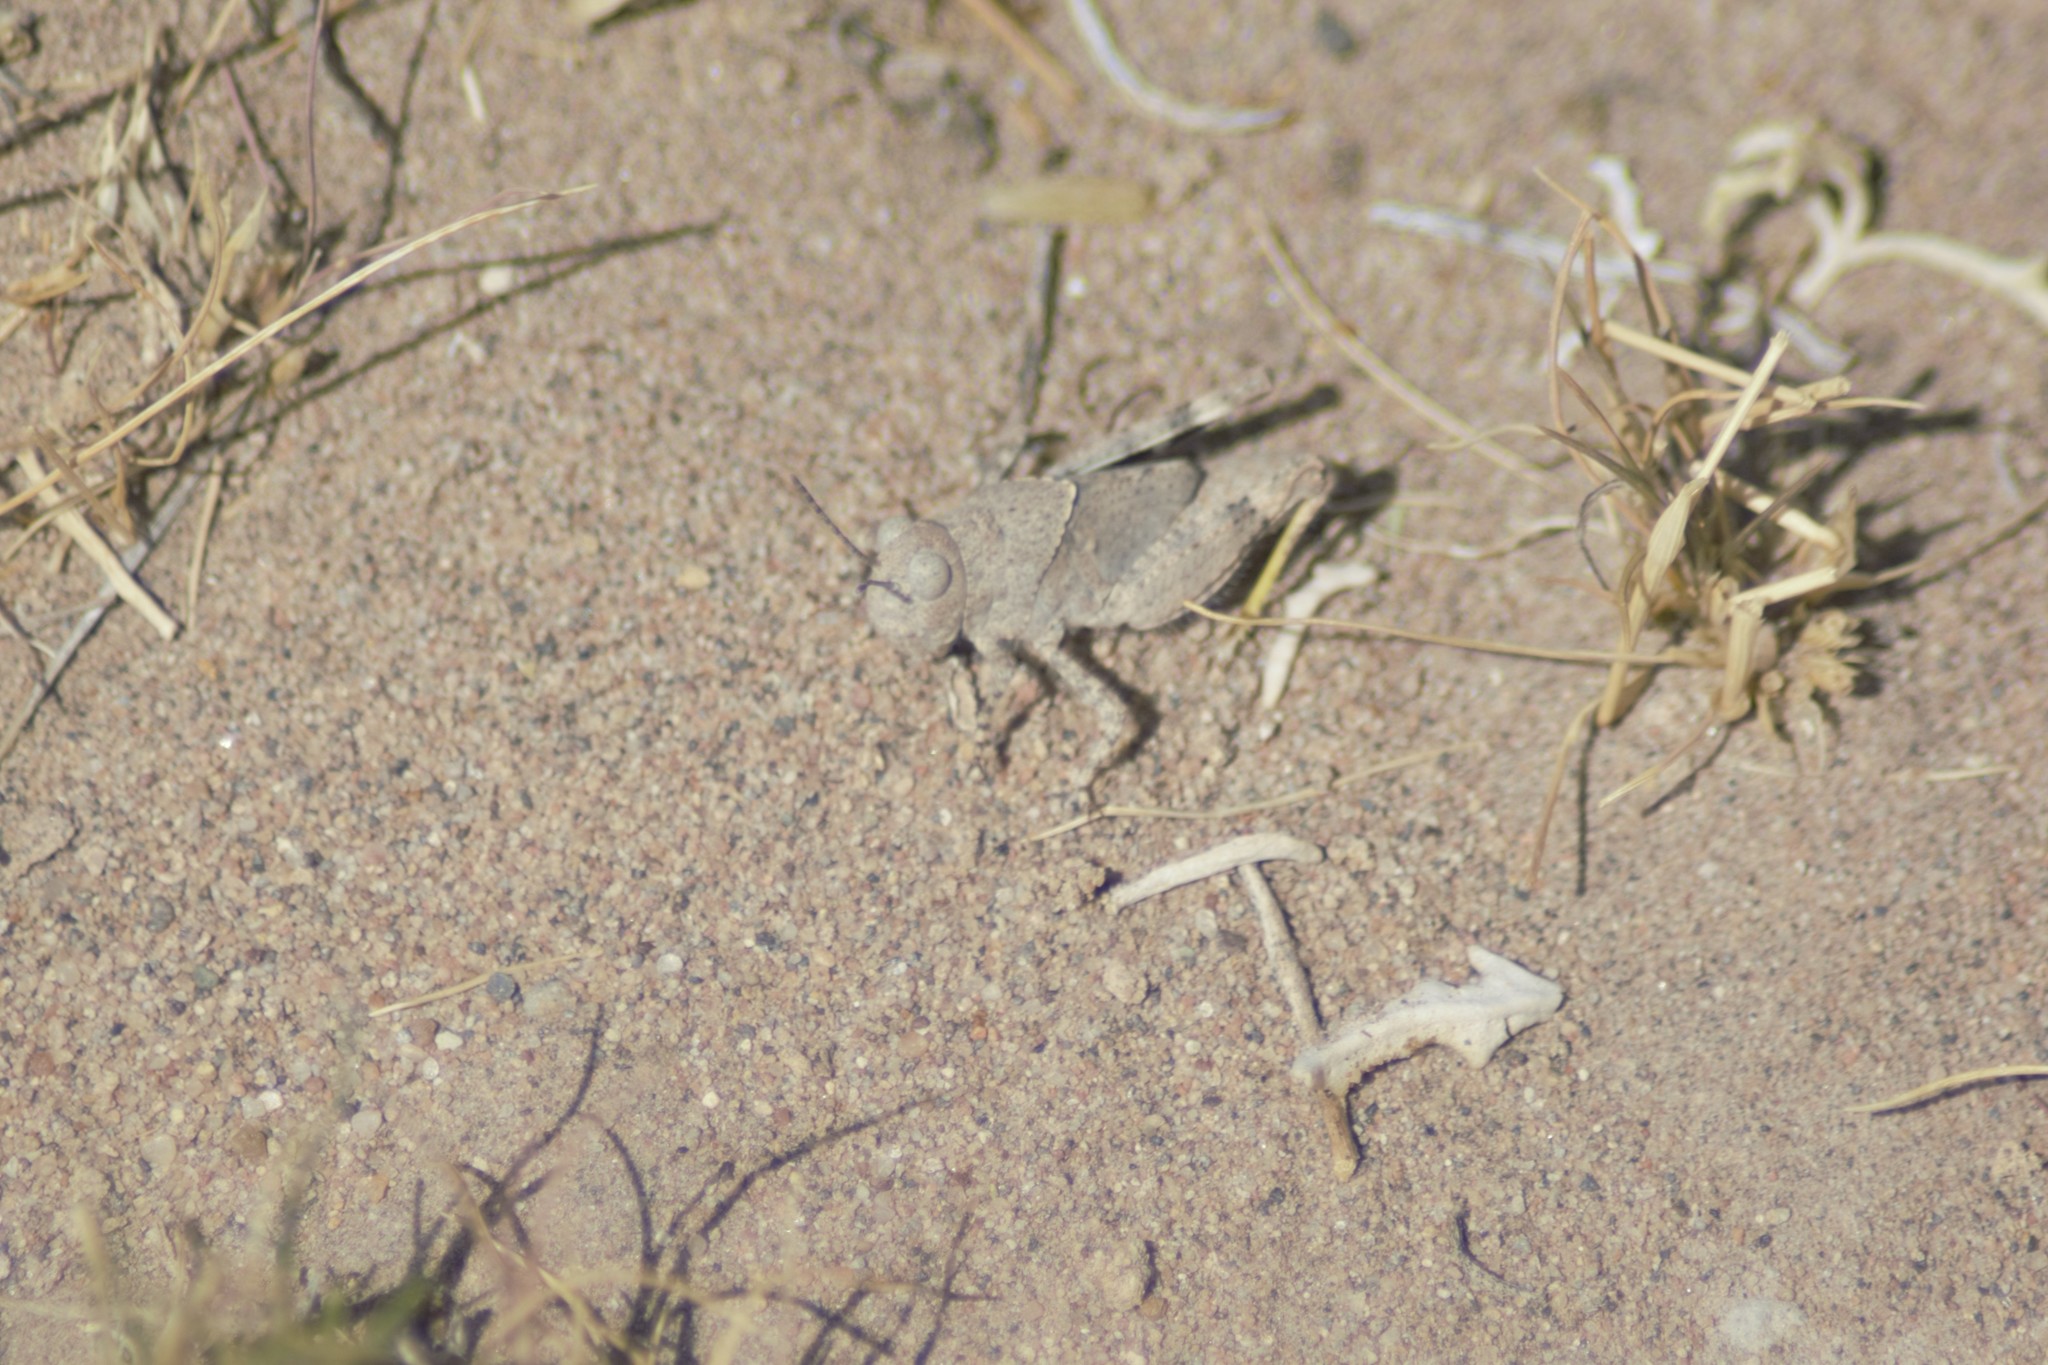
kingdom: Animalia
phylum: Arthropoda
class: Insecta
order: Orthoptera
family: Acrididae
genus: Trimerotropis
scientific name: Trimerotropis pallidipennis
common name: Pallid-winged grasshopper
